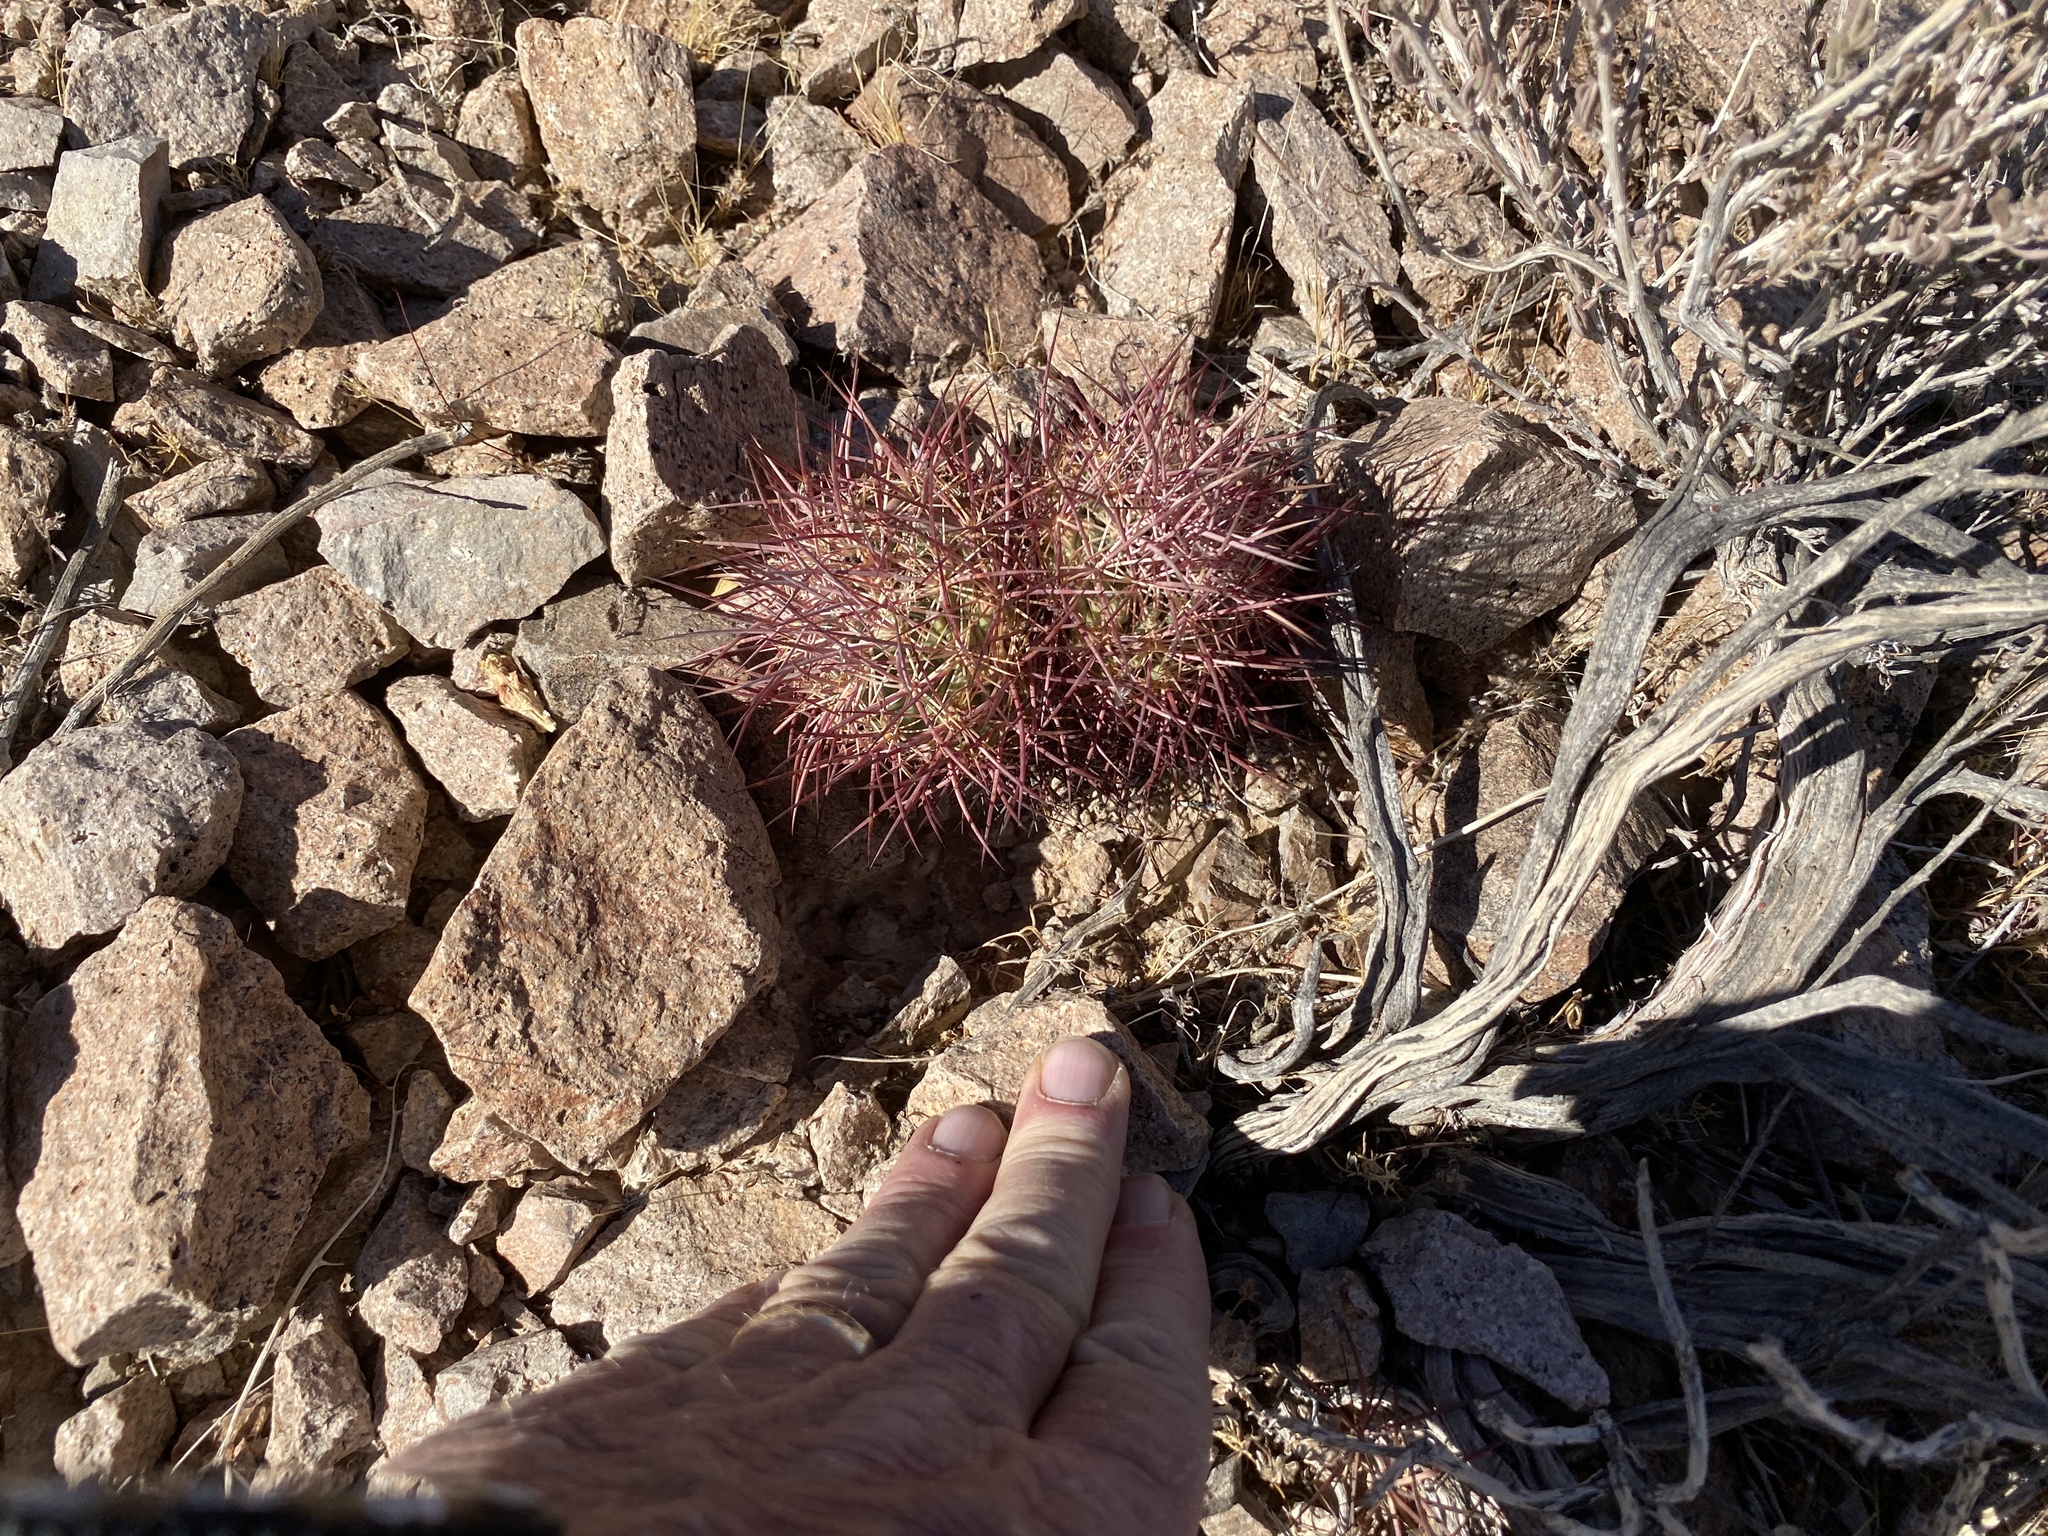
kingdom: Plantae
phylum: Tracheophyta
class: Magnoliopsida
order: Caryophyllales
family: Cactaceae
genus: Sclerocactus
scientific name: Sclerocactus johnsonii
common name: Eight-spine fishhook cactus
